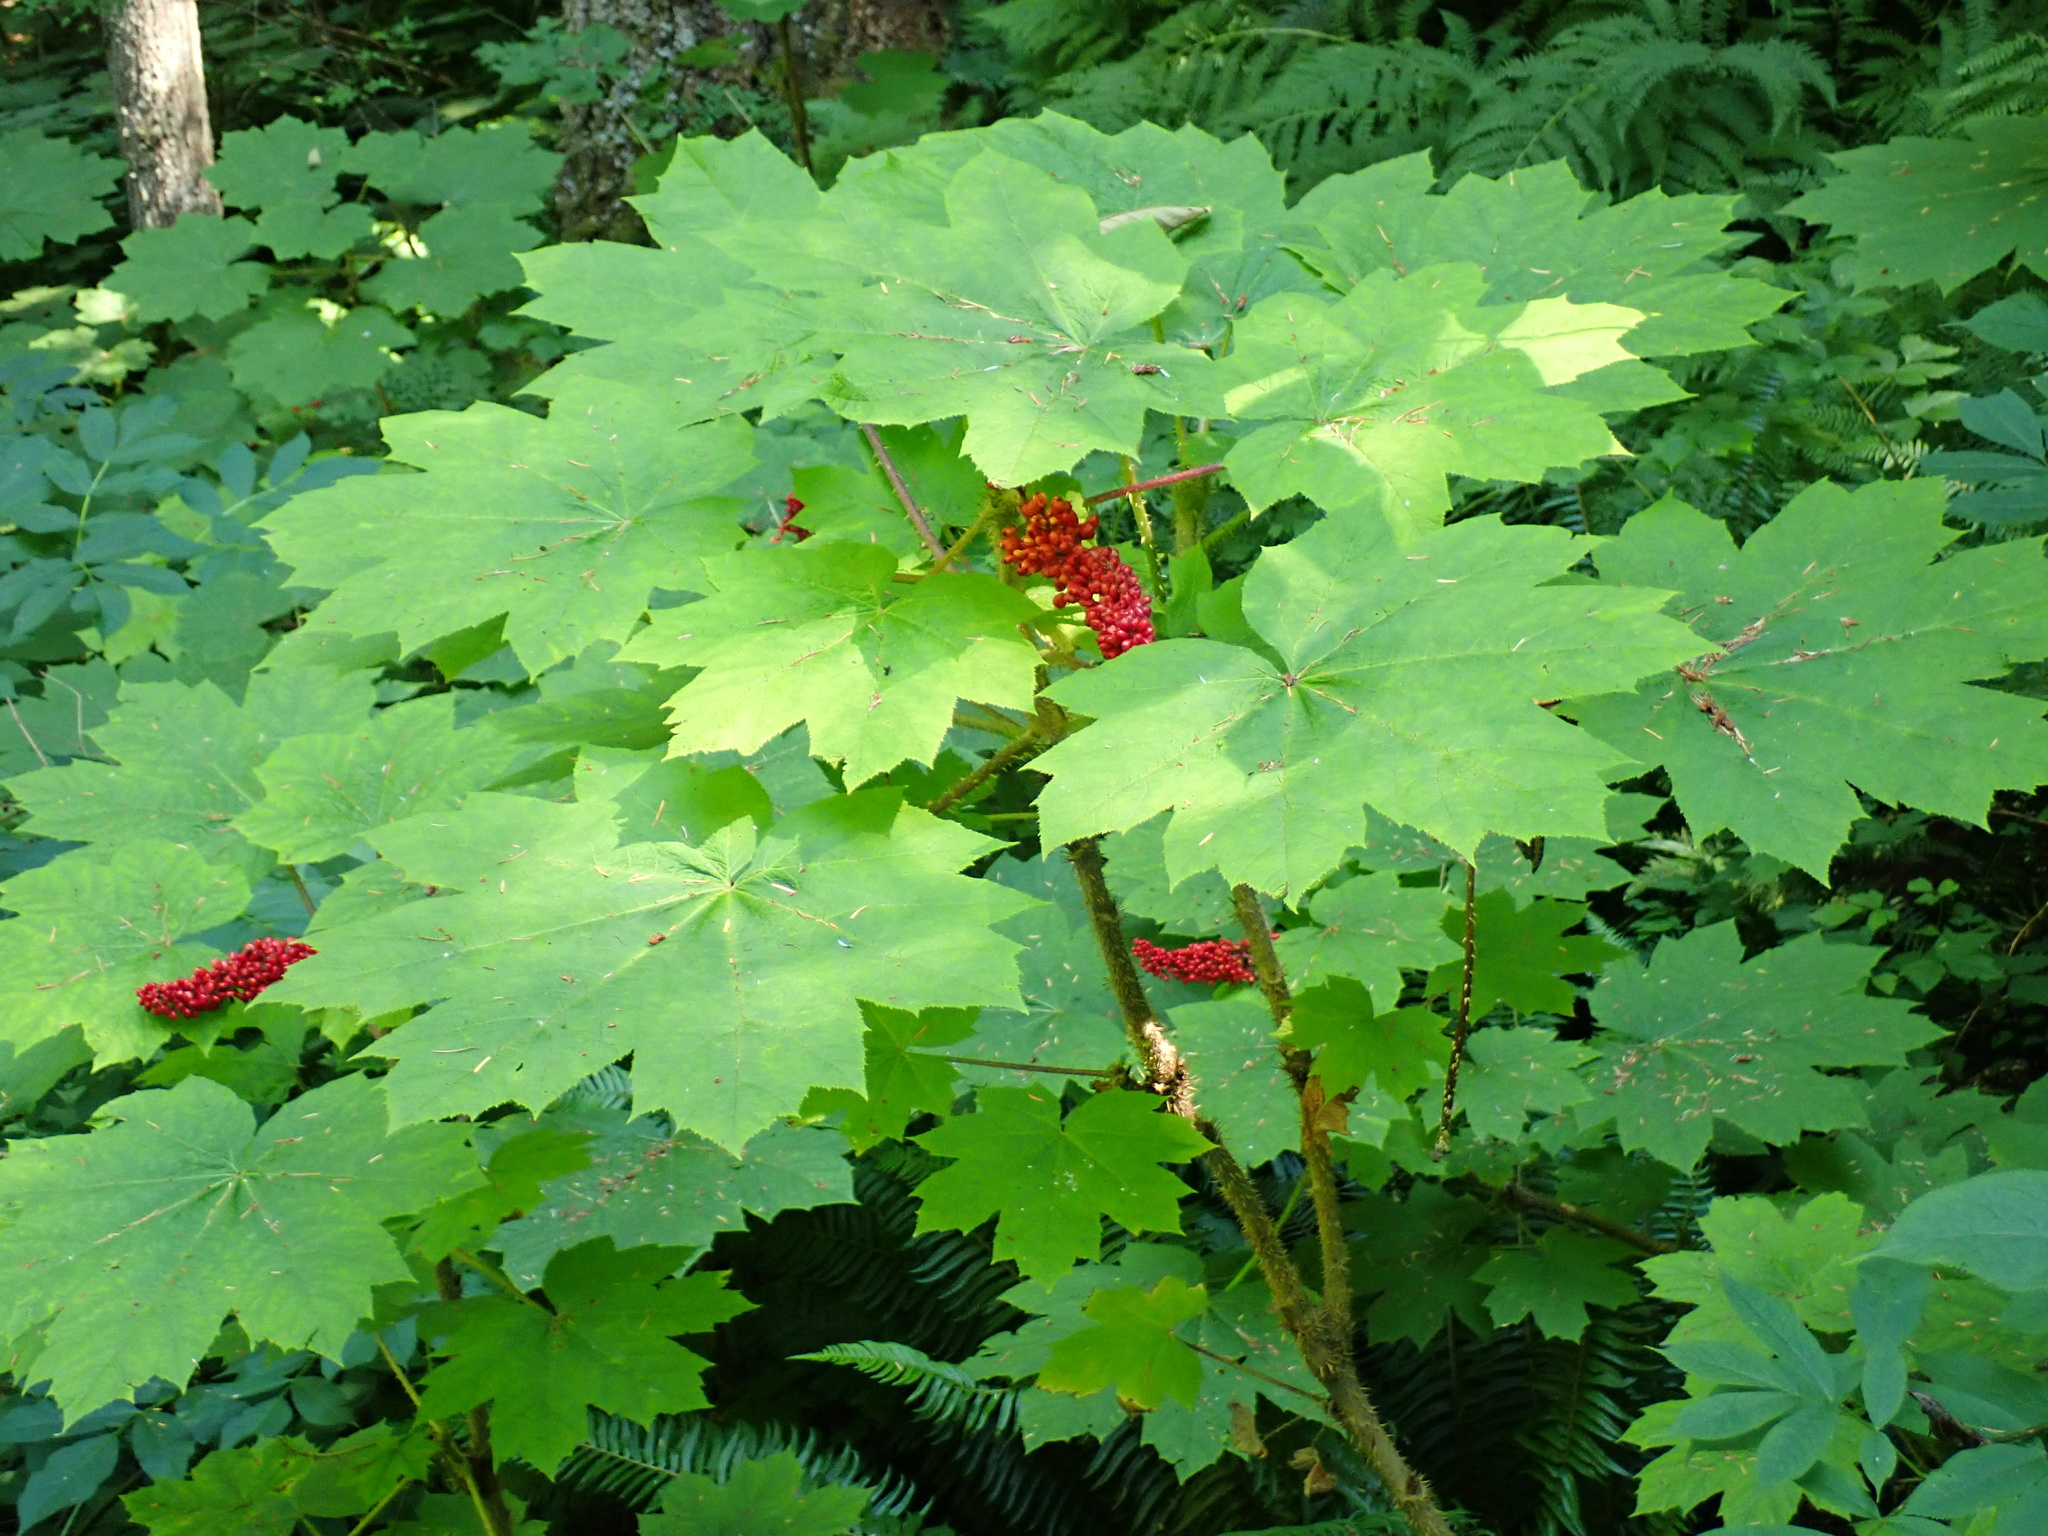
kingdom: Plantae
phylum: Tracheophyta
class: Magnoliopsida
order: Apiales
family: Araliaceae
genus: Oplopanax
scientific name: Oplopanax horridus
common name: Devil's walking-stick
